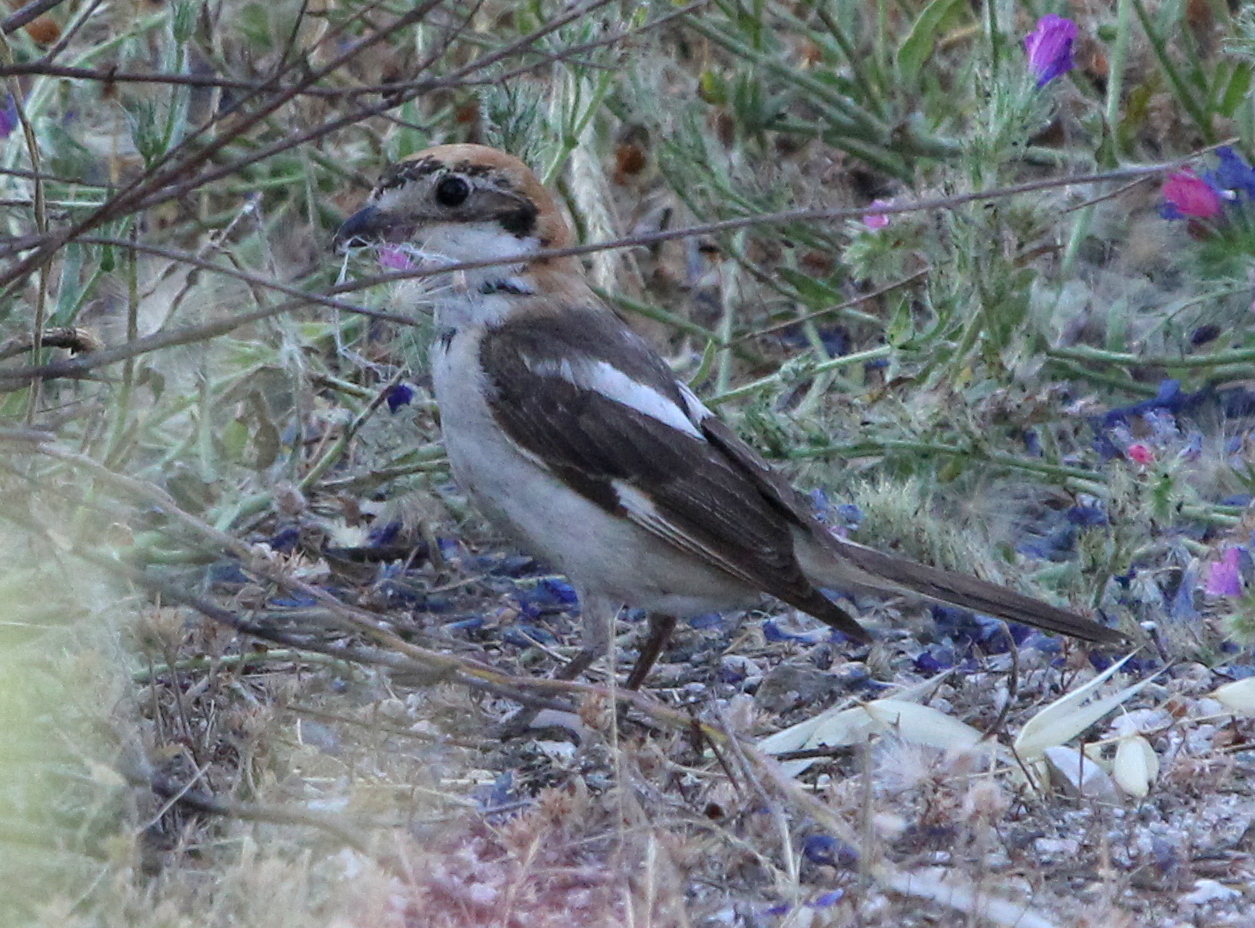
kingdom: Animalia
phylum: Chordata
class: Aves
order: Passeriformes
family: Laniidae
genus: Lanius
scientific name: Lanius senator
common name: Woodchat shrike
